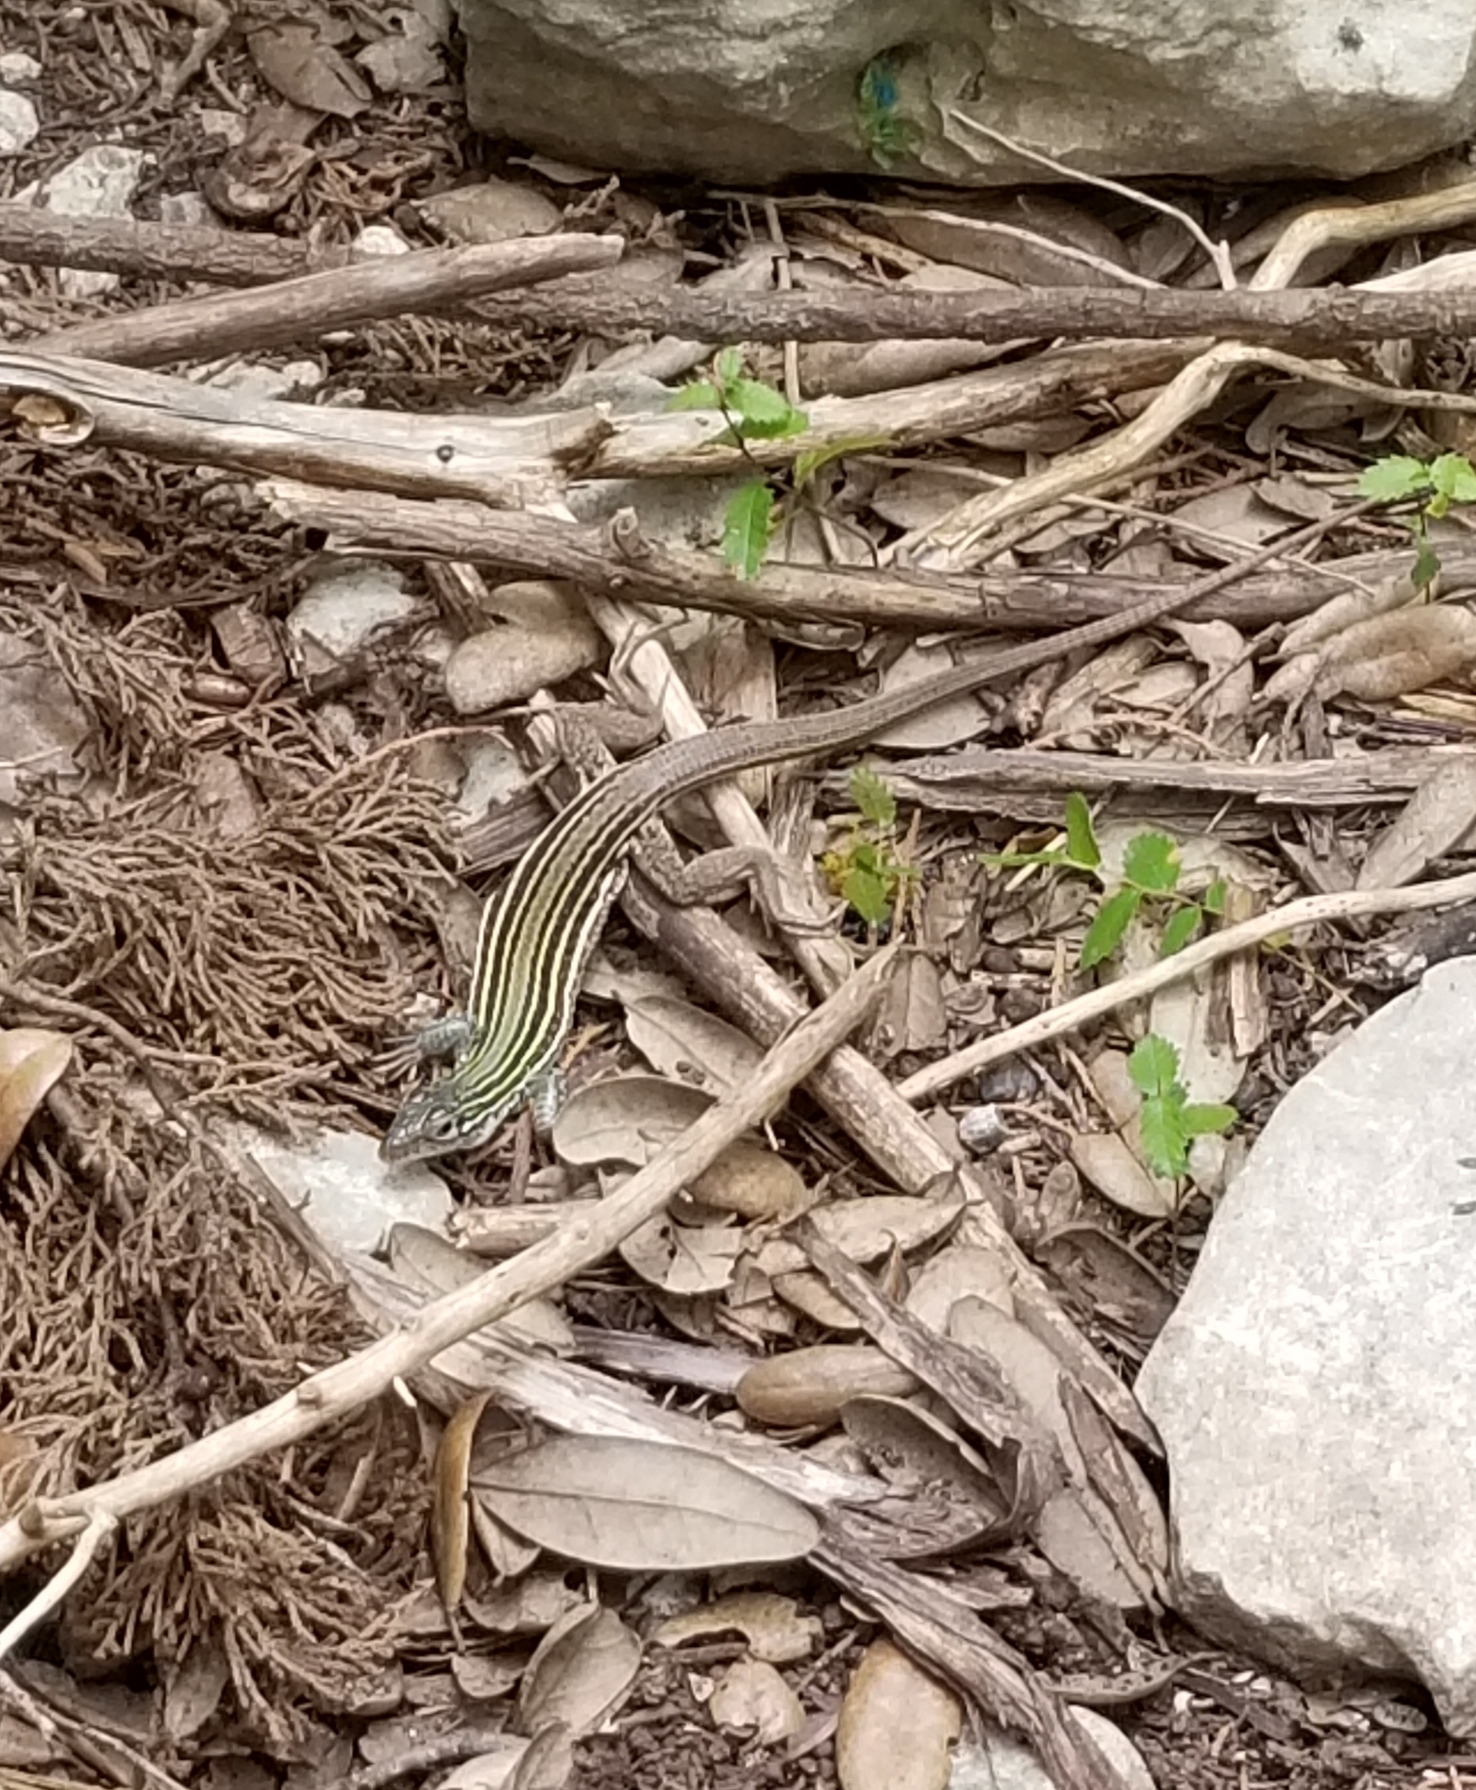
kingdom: Animalia
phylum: Chordata
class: Squamata
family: Teiidae
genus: Aspidoscelis
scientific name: Aspidoscelis gularis
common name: Eastern spotted whiptail
